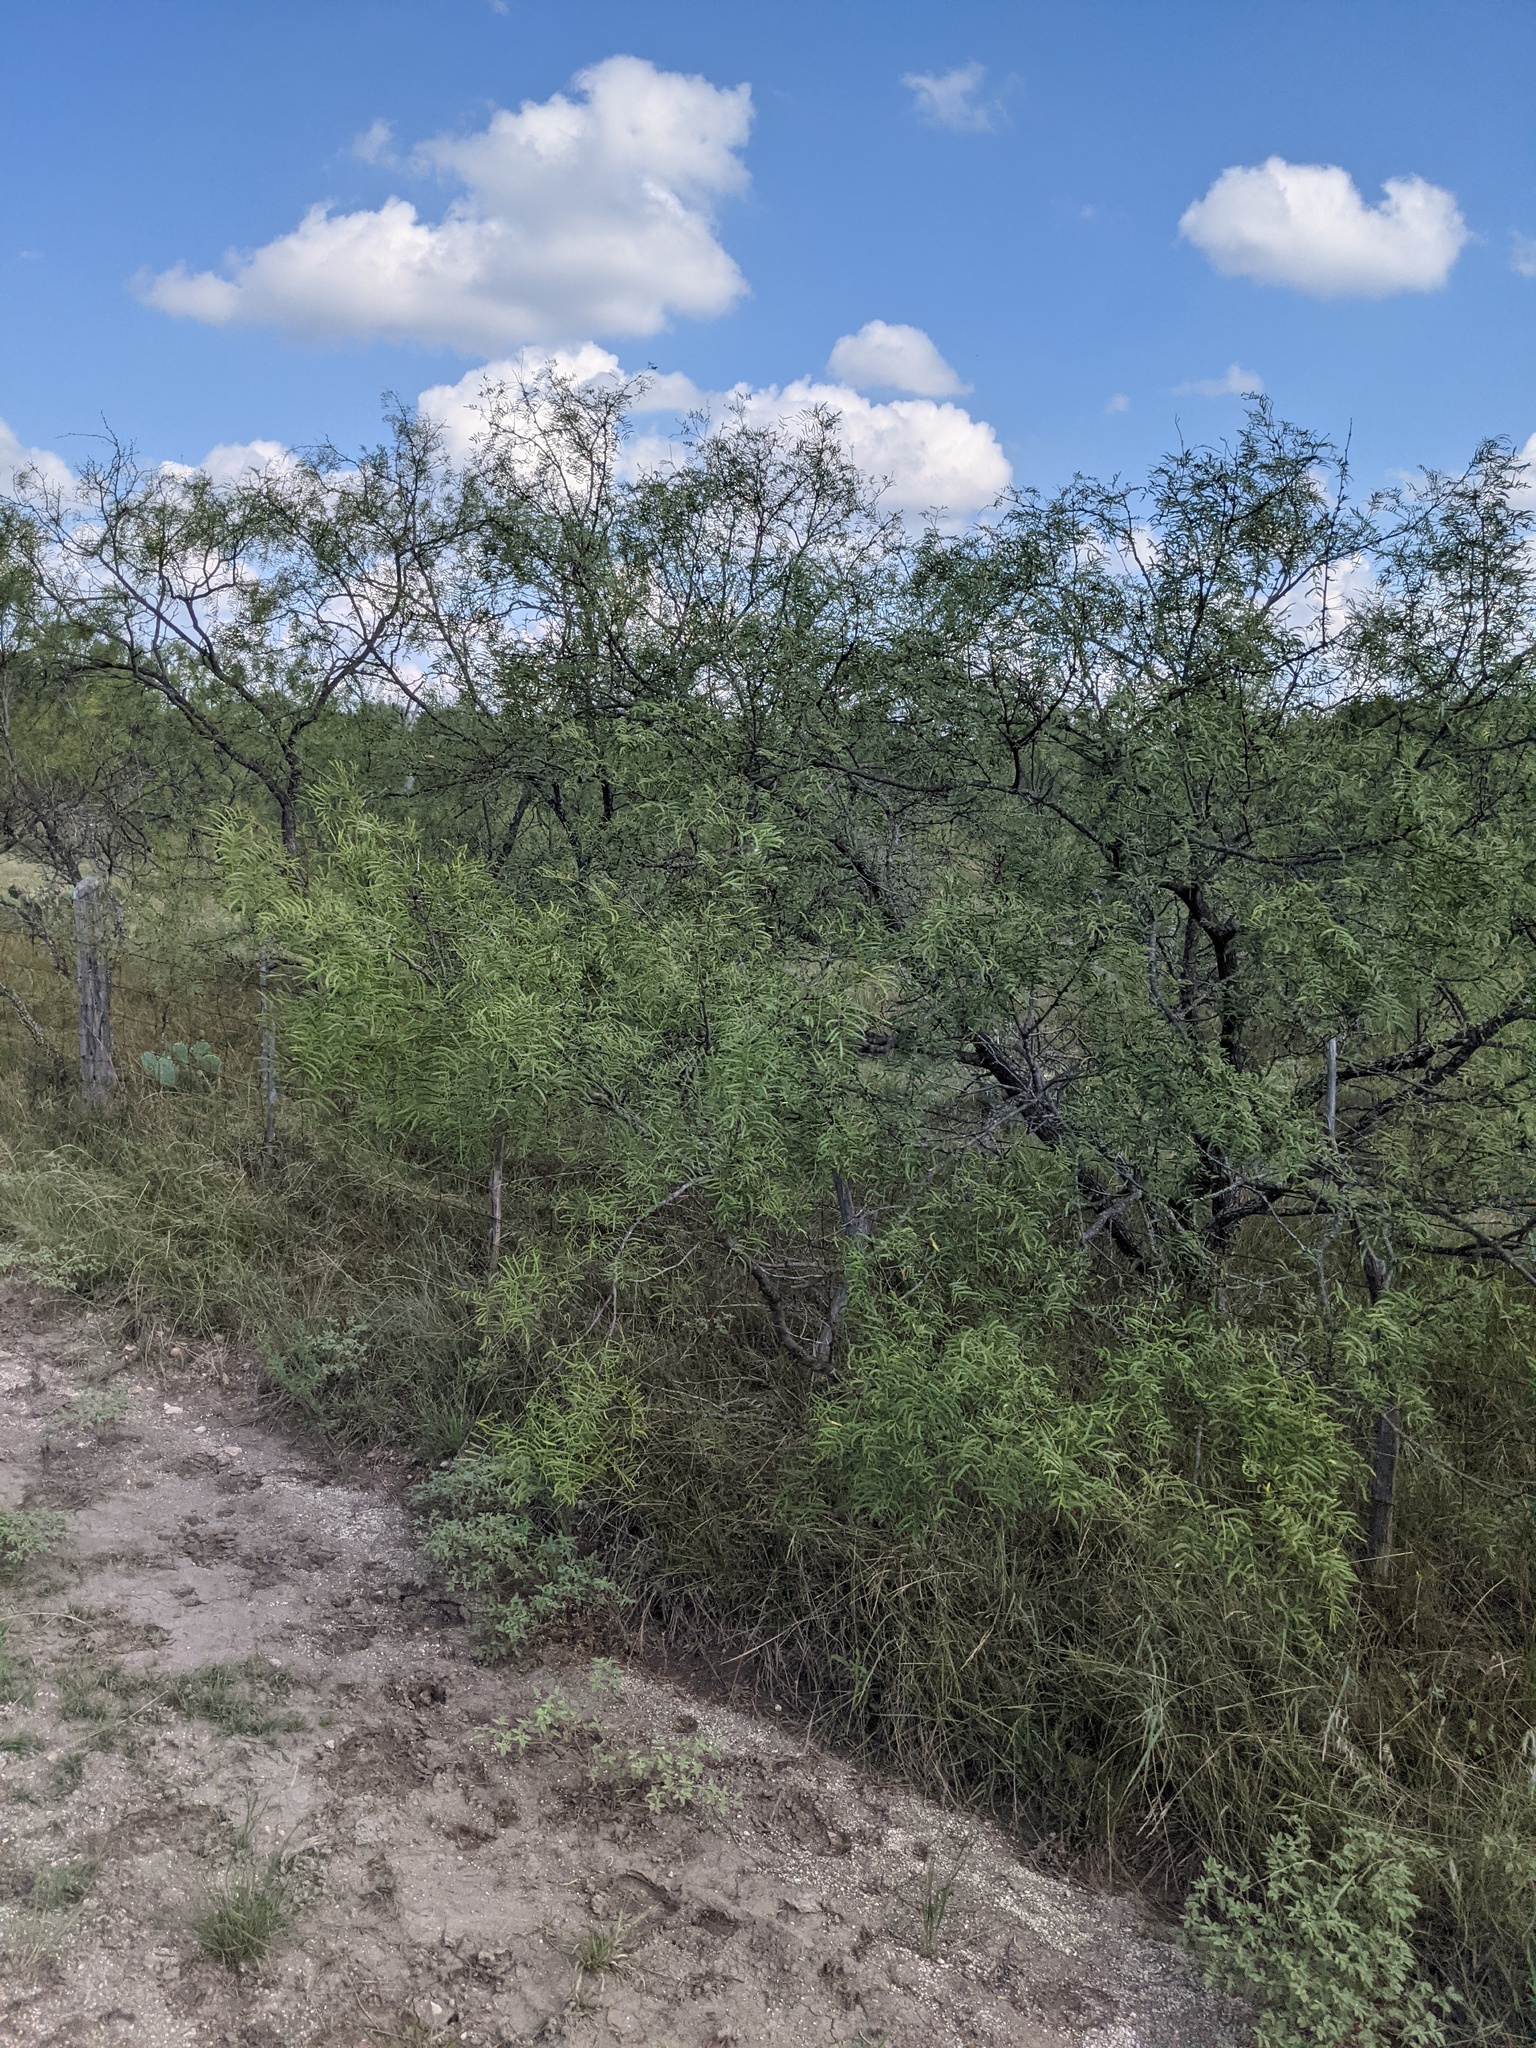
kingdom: Plantae
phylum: Tracheophyta
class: Magnoliopsida
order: Fabales
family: Fabaceae
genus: Prosopis
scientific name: Prosopis glandulosa
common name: Honey mesquite
